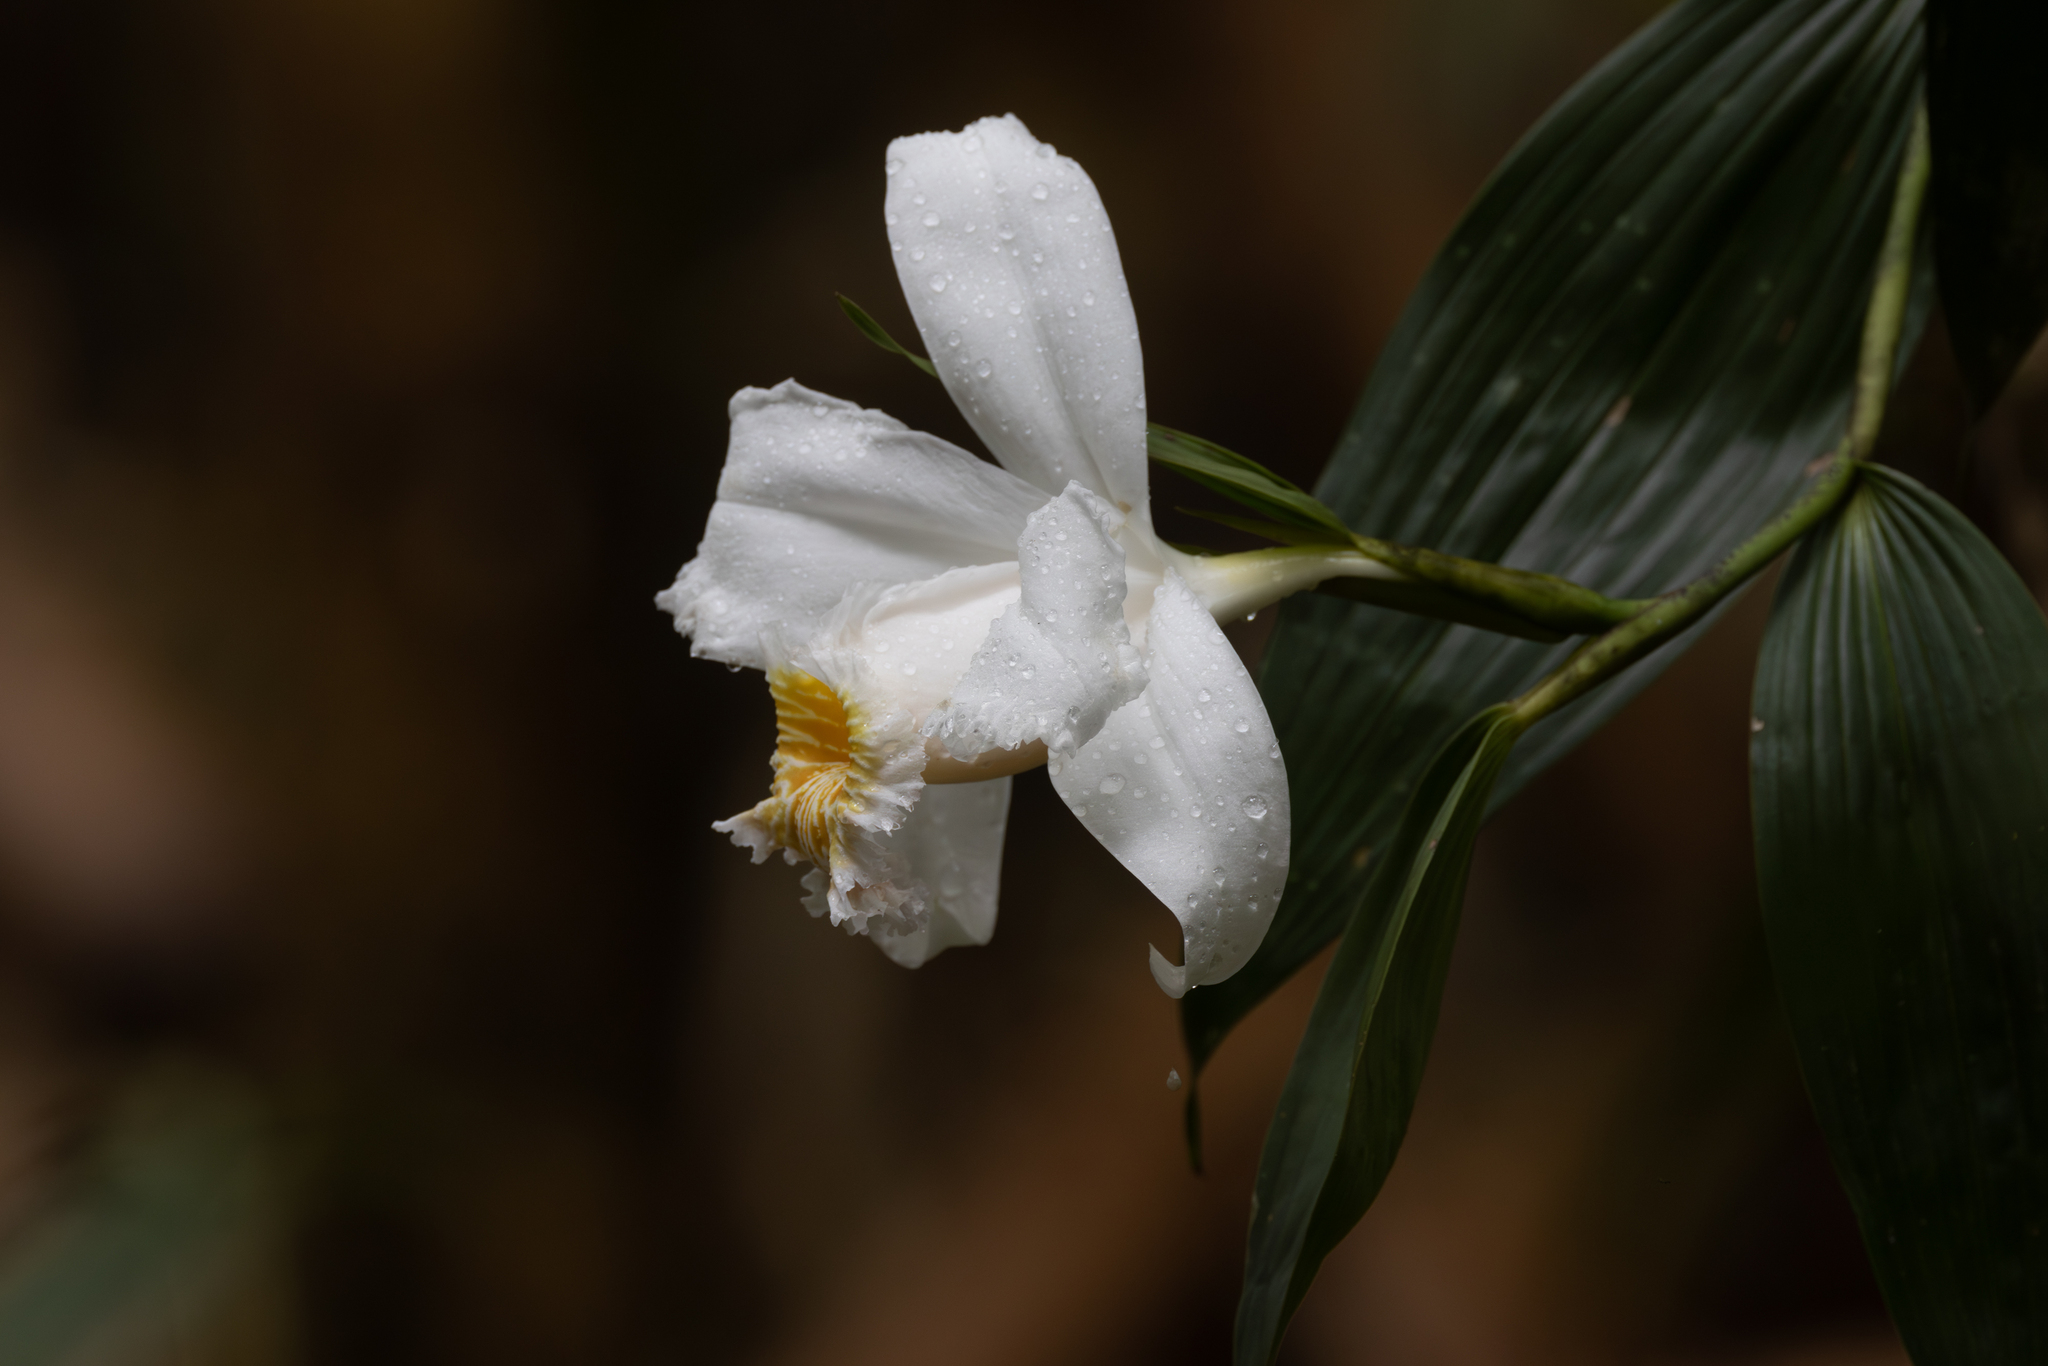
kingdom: Plantae
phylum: Tracheophyta
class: Liliopsida
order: Asparagales
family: Orchidaceae
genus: Sobralia
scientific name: Sobralia chrysostoma
